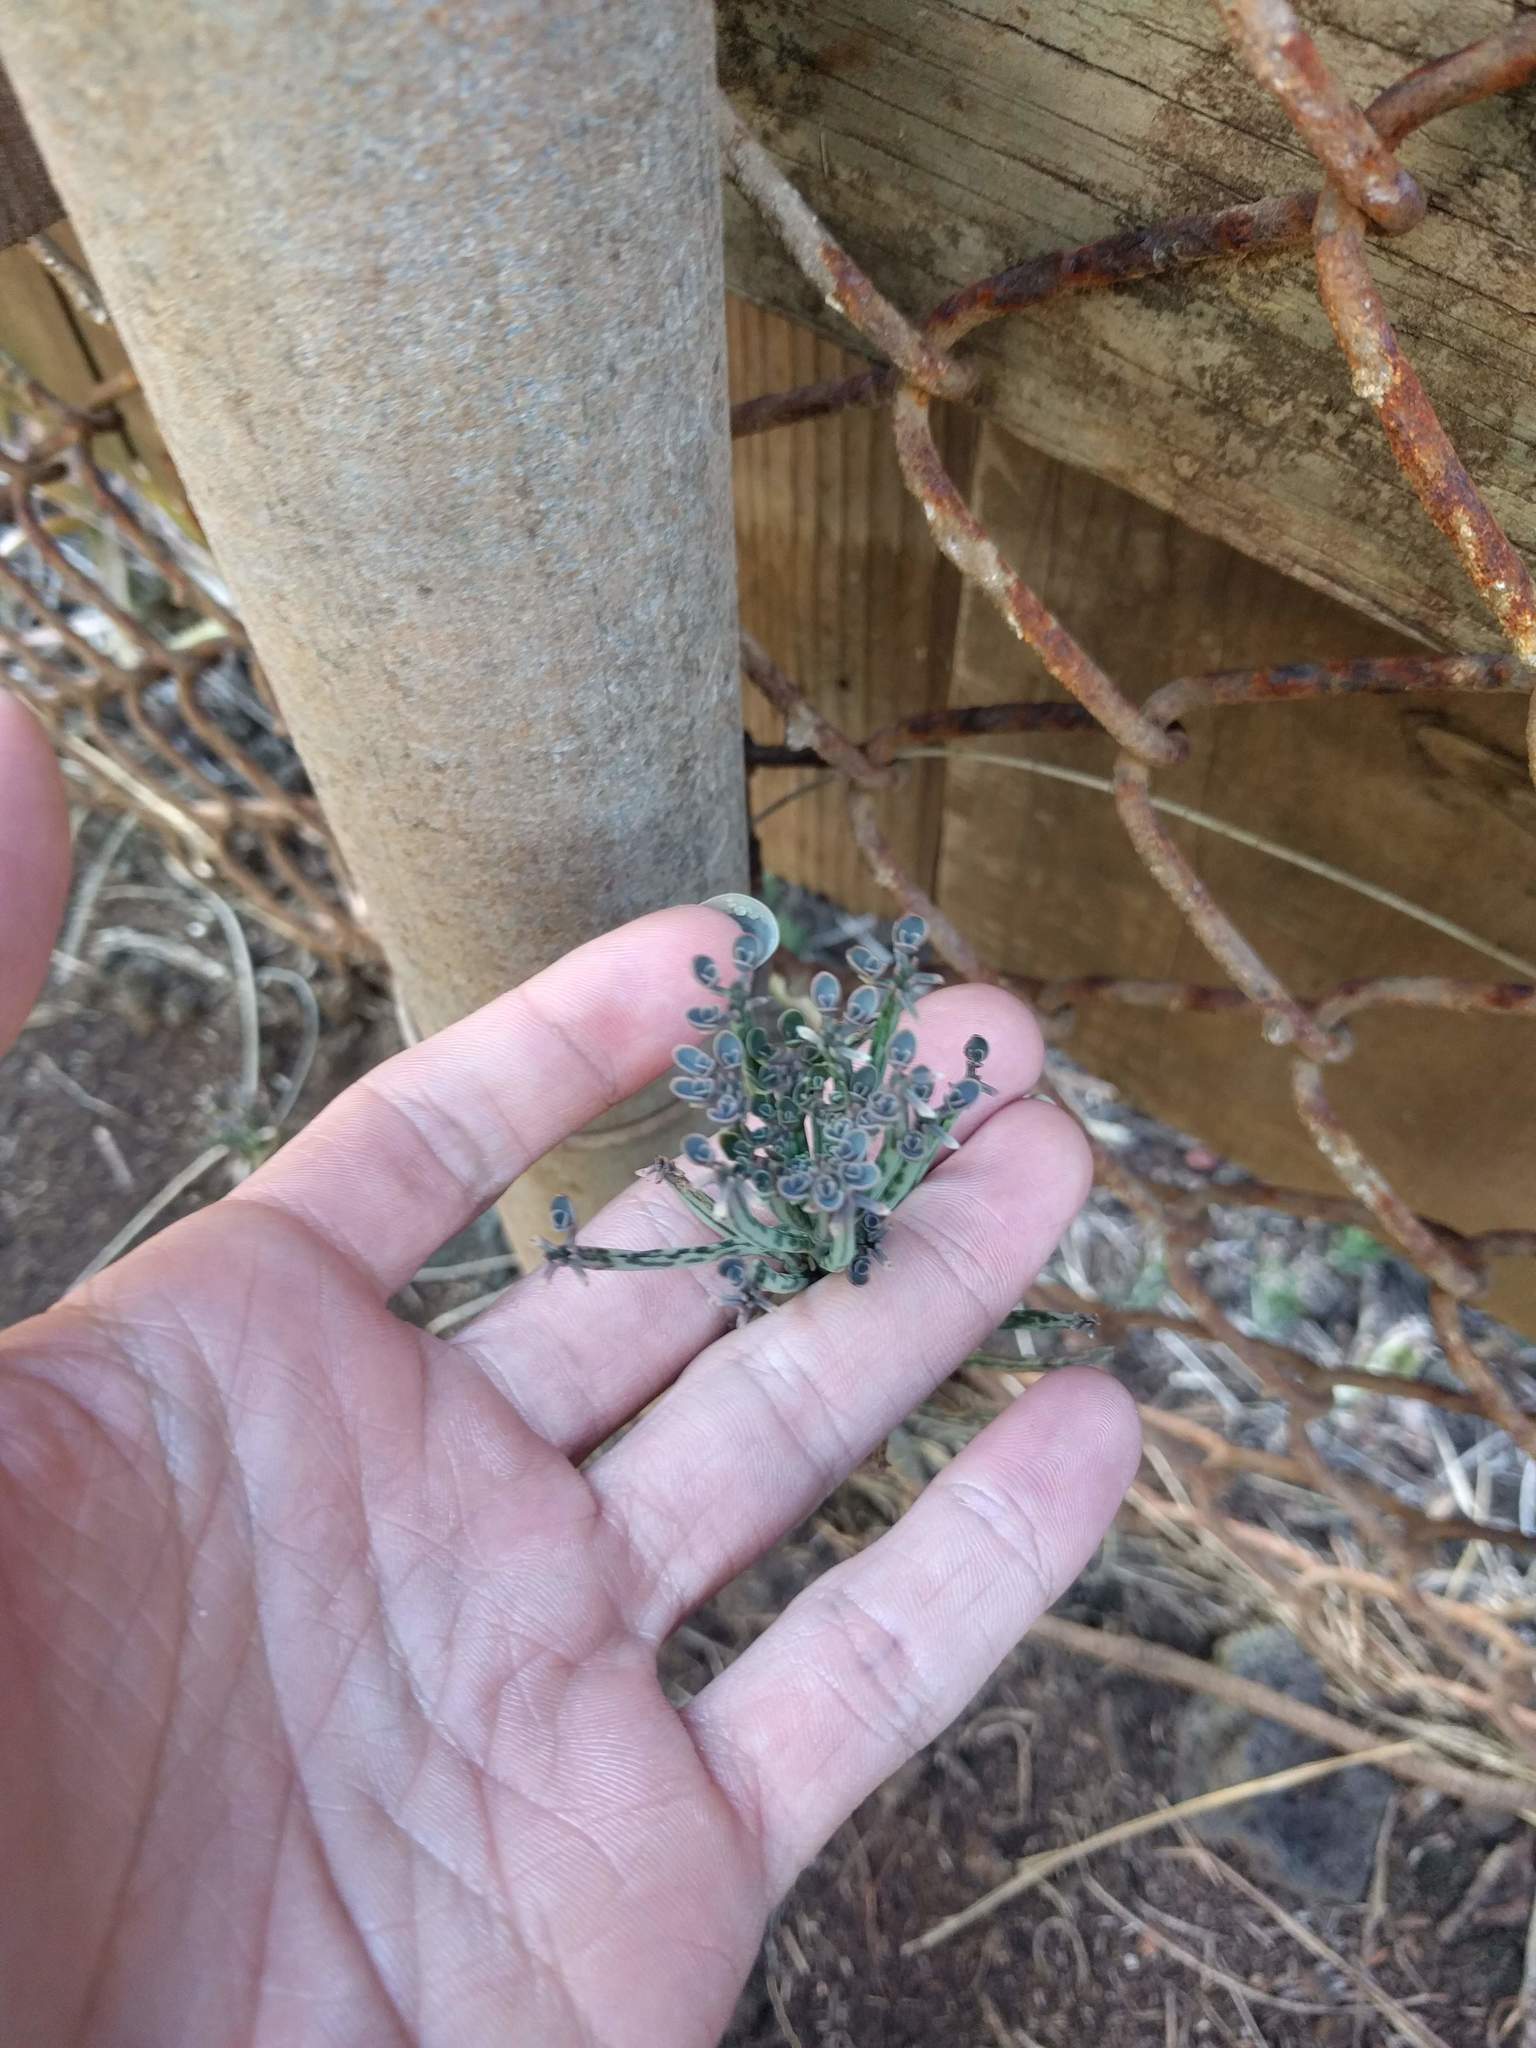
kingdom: Plantae
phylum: Tracheophyta
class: Magnoliopsida
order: Saxifragales
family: Crassulaceae
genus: Kalanchoe
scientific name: Kalanchoe delagoensis
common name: Chandelier plant
